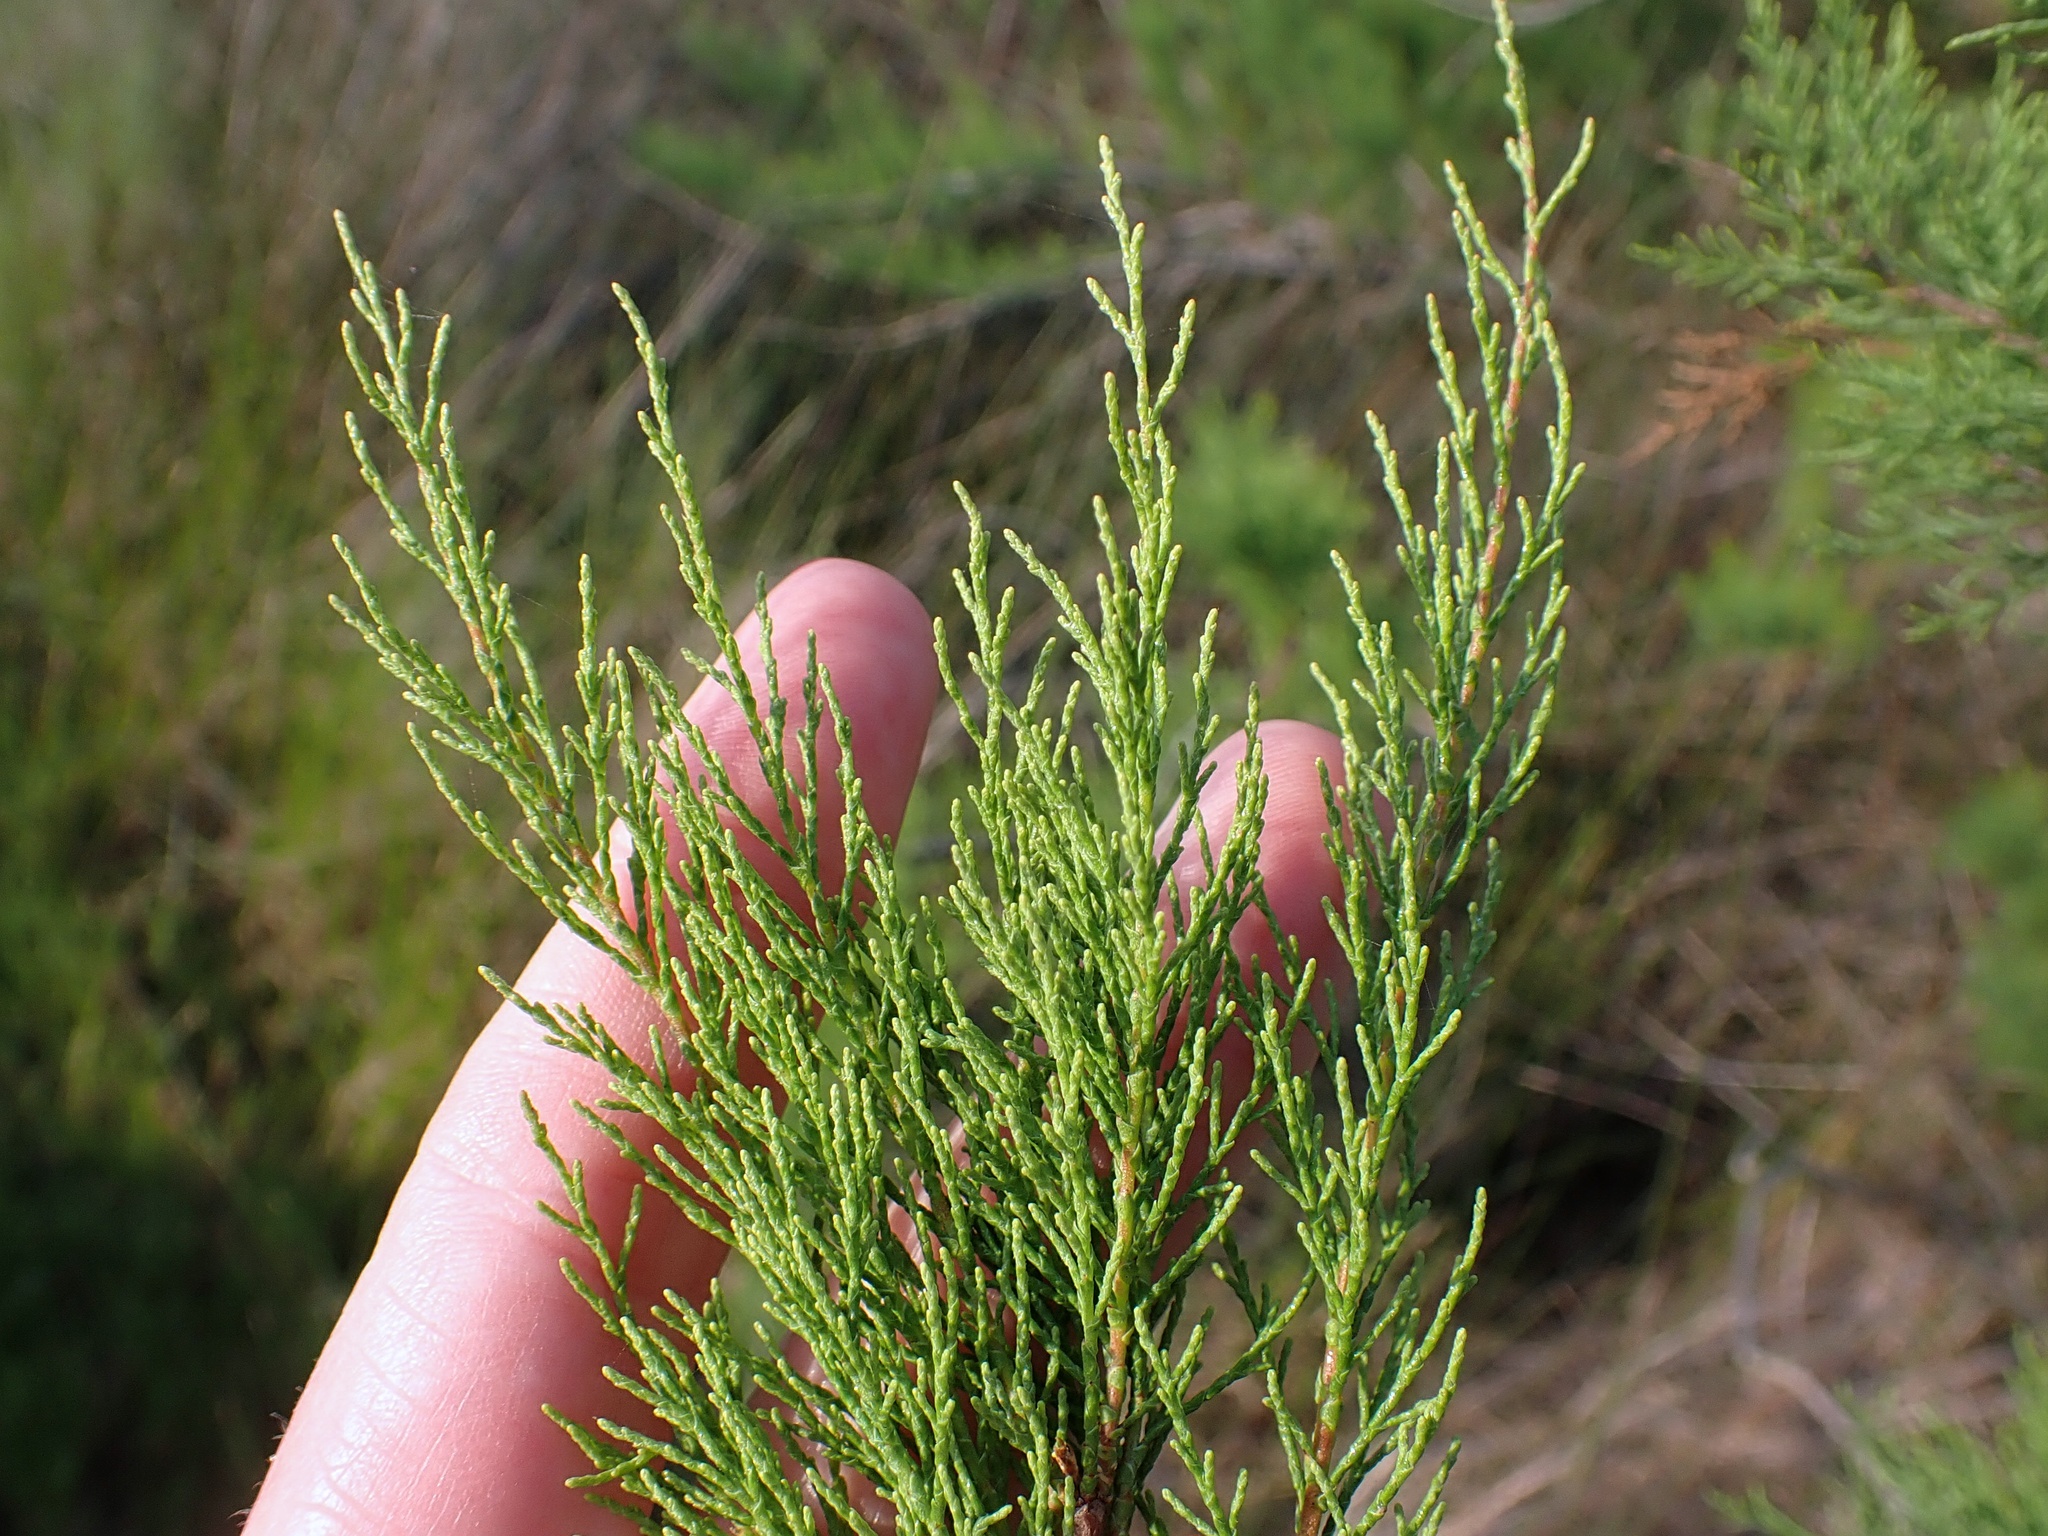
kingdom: Plantae
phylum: Tracheophyta
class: Magnoliopsida
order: Caryophyllales
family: Tamaricaceae
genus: Tamarix
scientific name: Tamarix ramosissima
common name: Pink tamarisk
